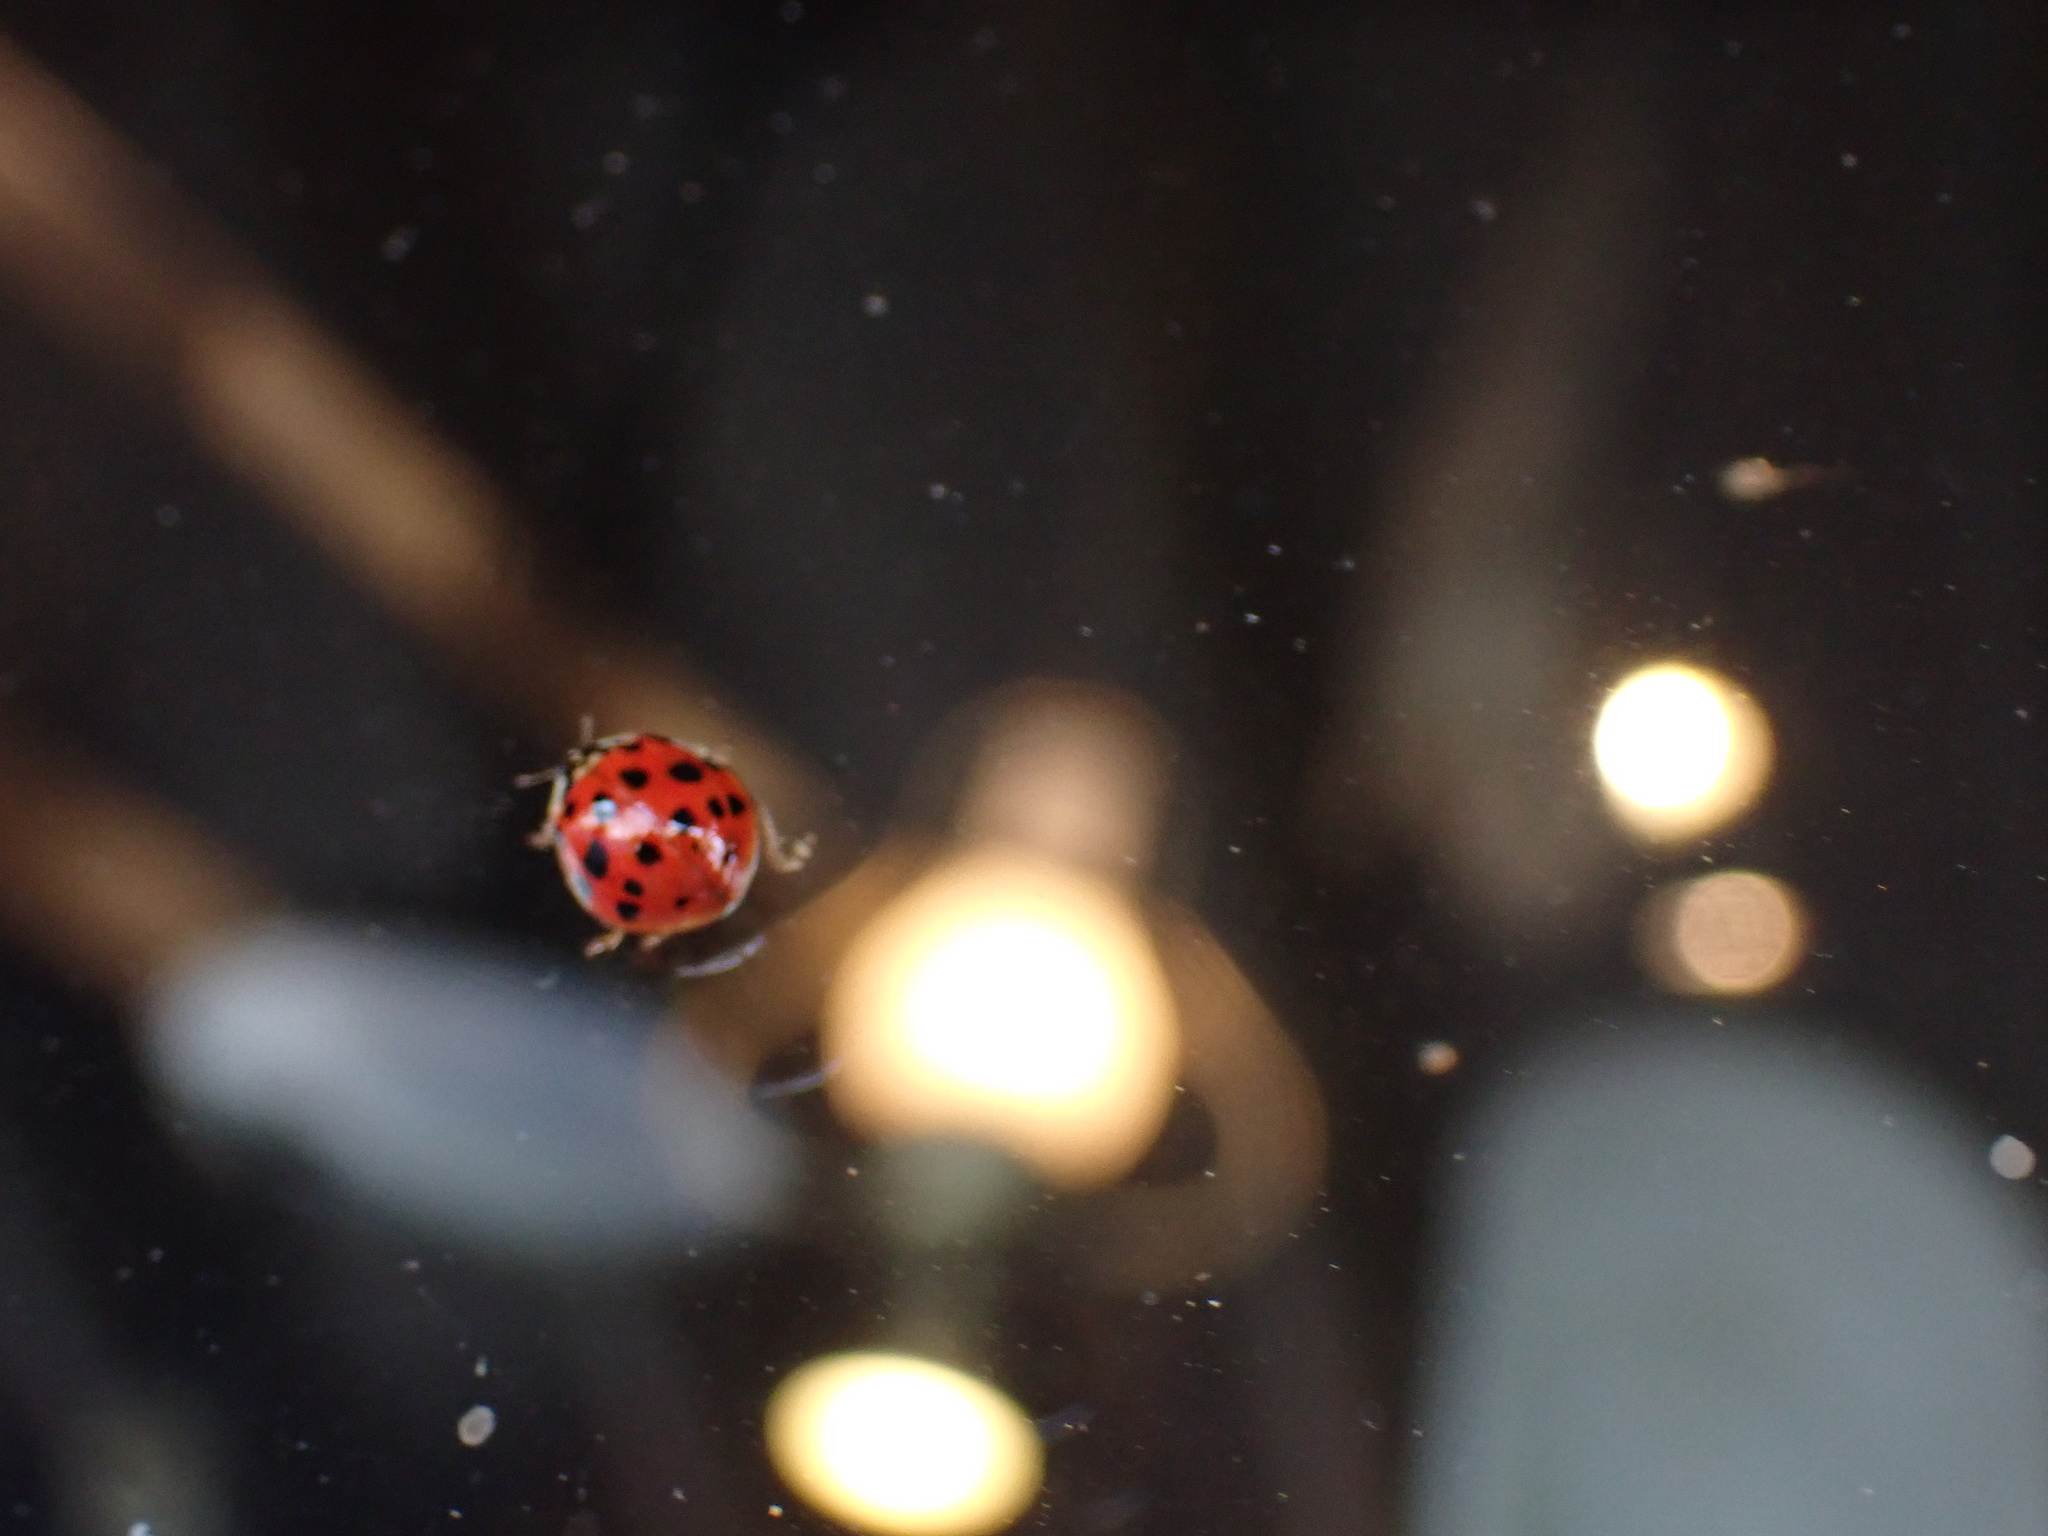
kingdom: Animalia
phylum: Arthropoda
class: Insecta
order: Coleoptera
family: Coccinellidae
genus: Harmonia
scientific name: Harmonia axyridis
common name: Harlequin ladybird
